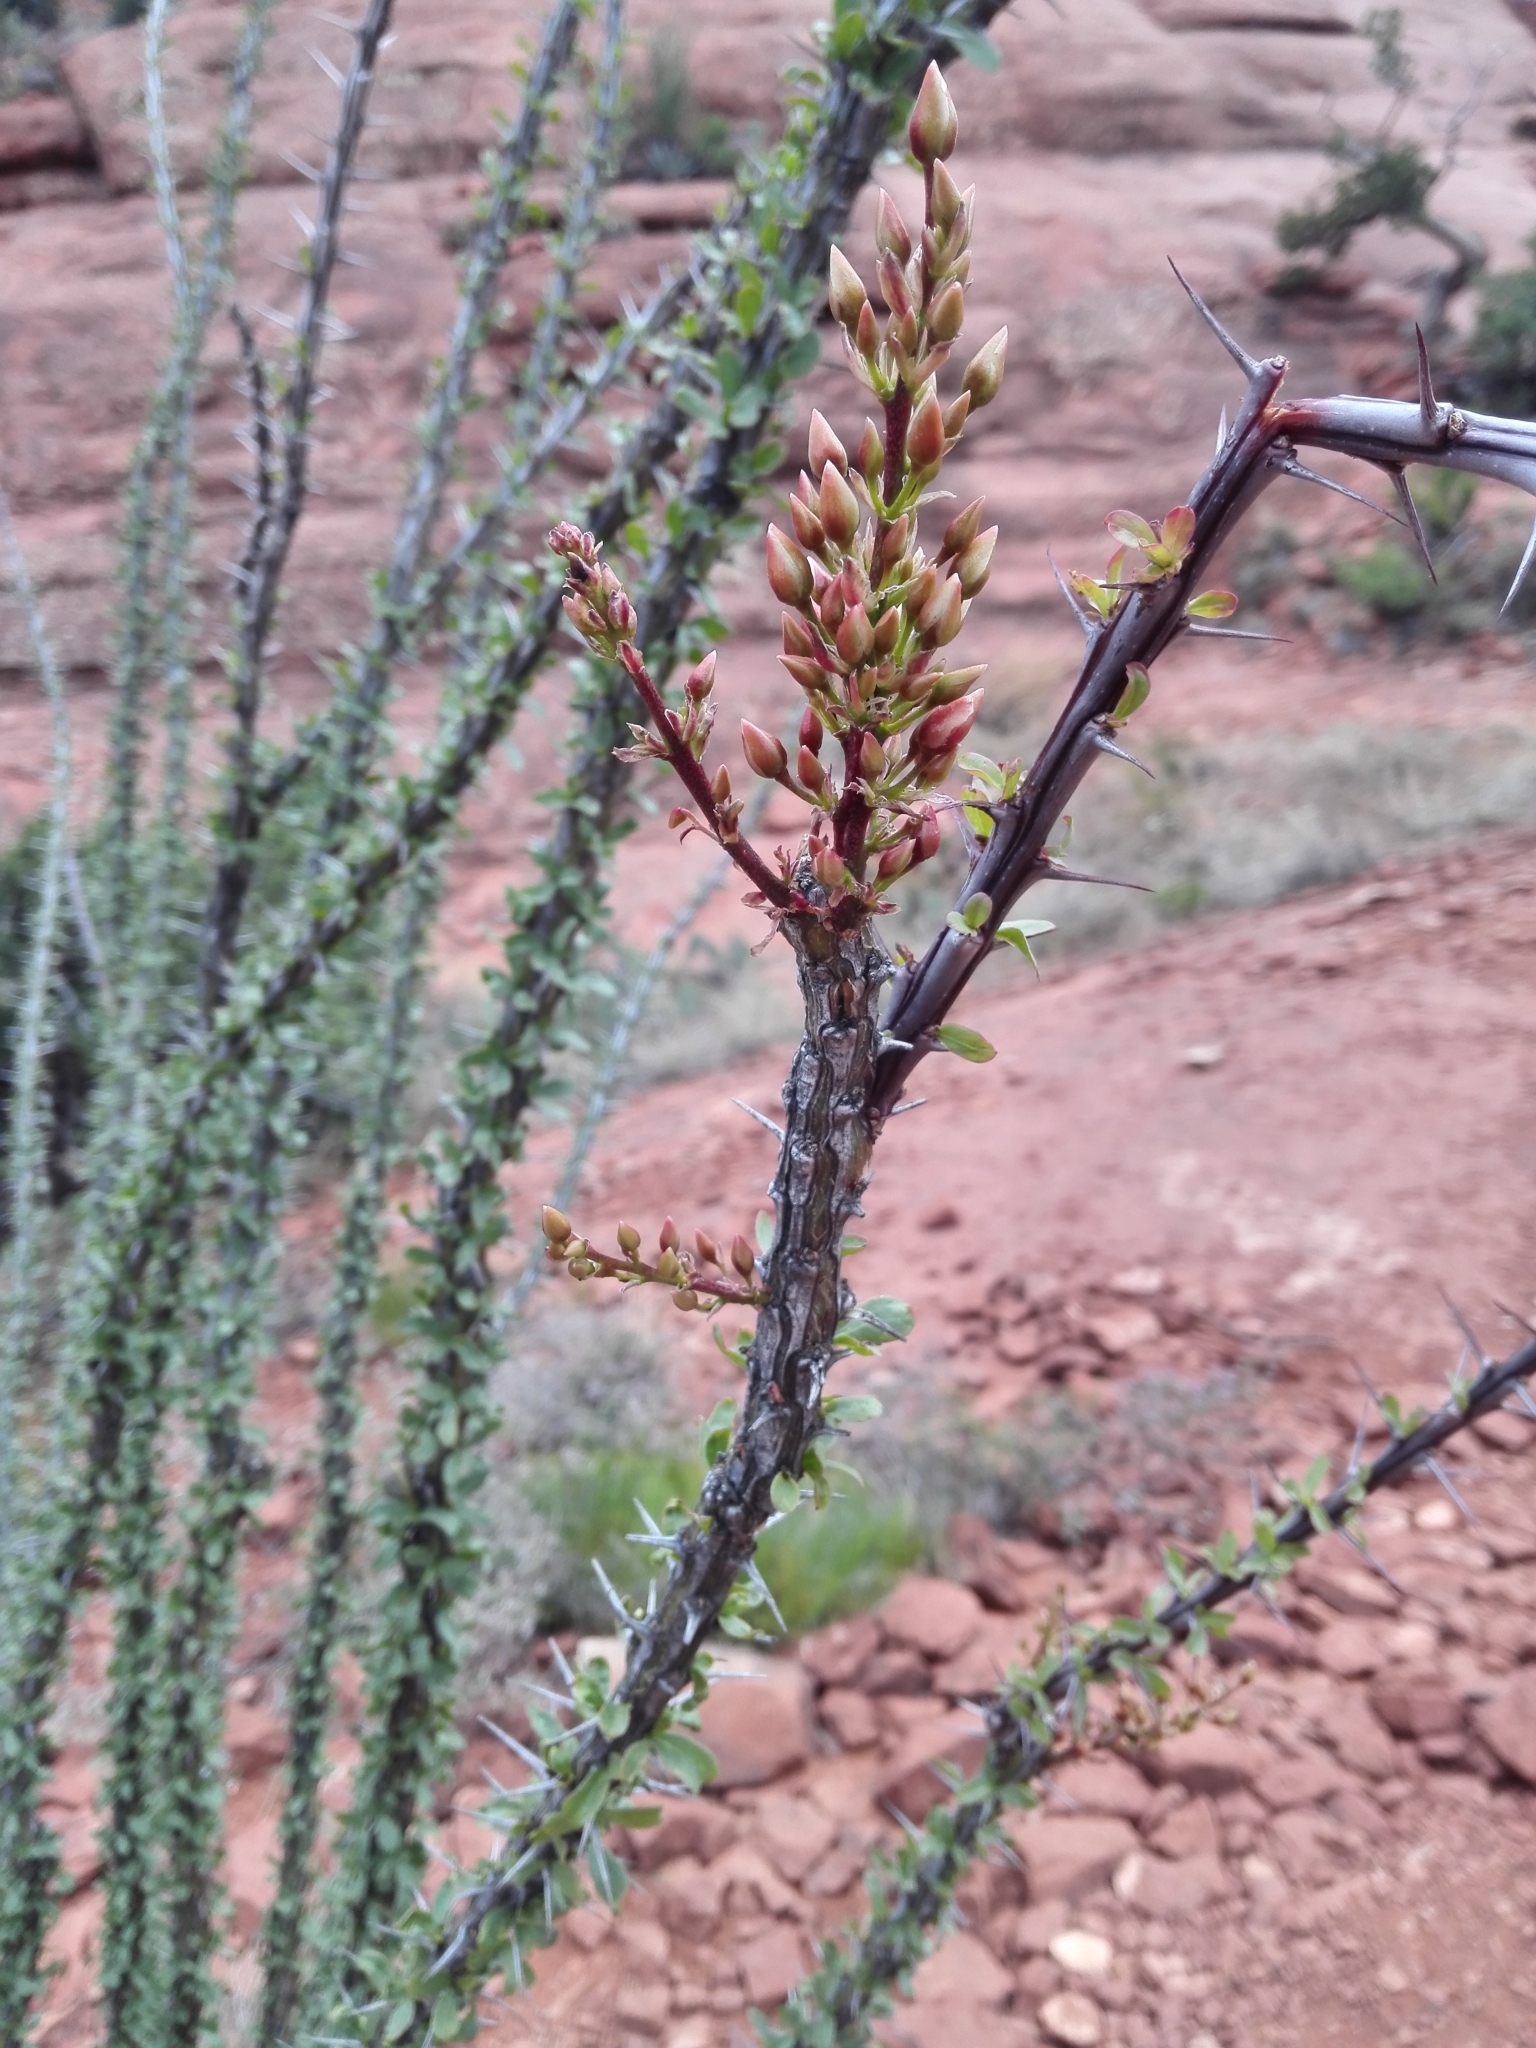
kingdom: Plantae
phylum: Tracheophyta
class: Magnoliopsida
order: Ericales
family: Fouquieriaceae
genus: Fouquieria
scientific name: Fouquieria splendens
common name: Vine-cactus
